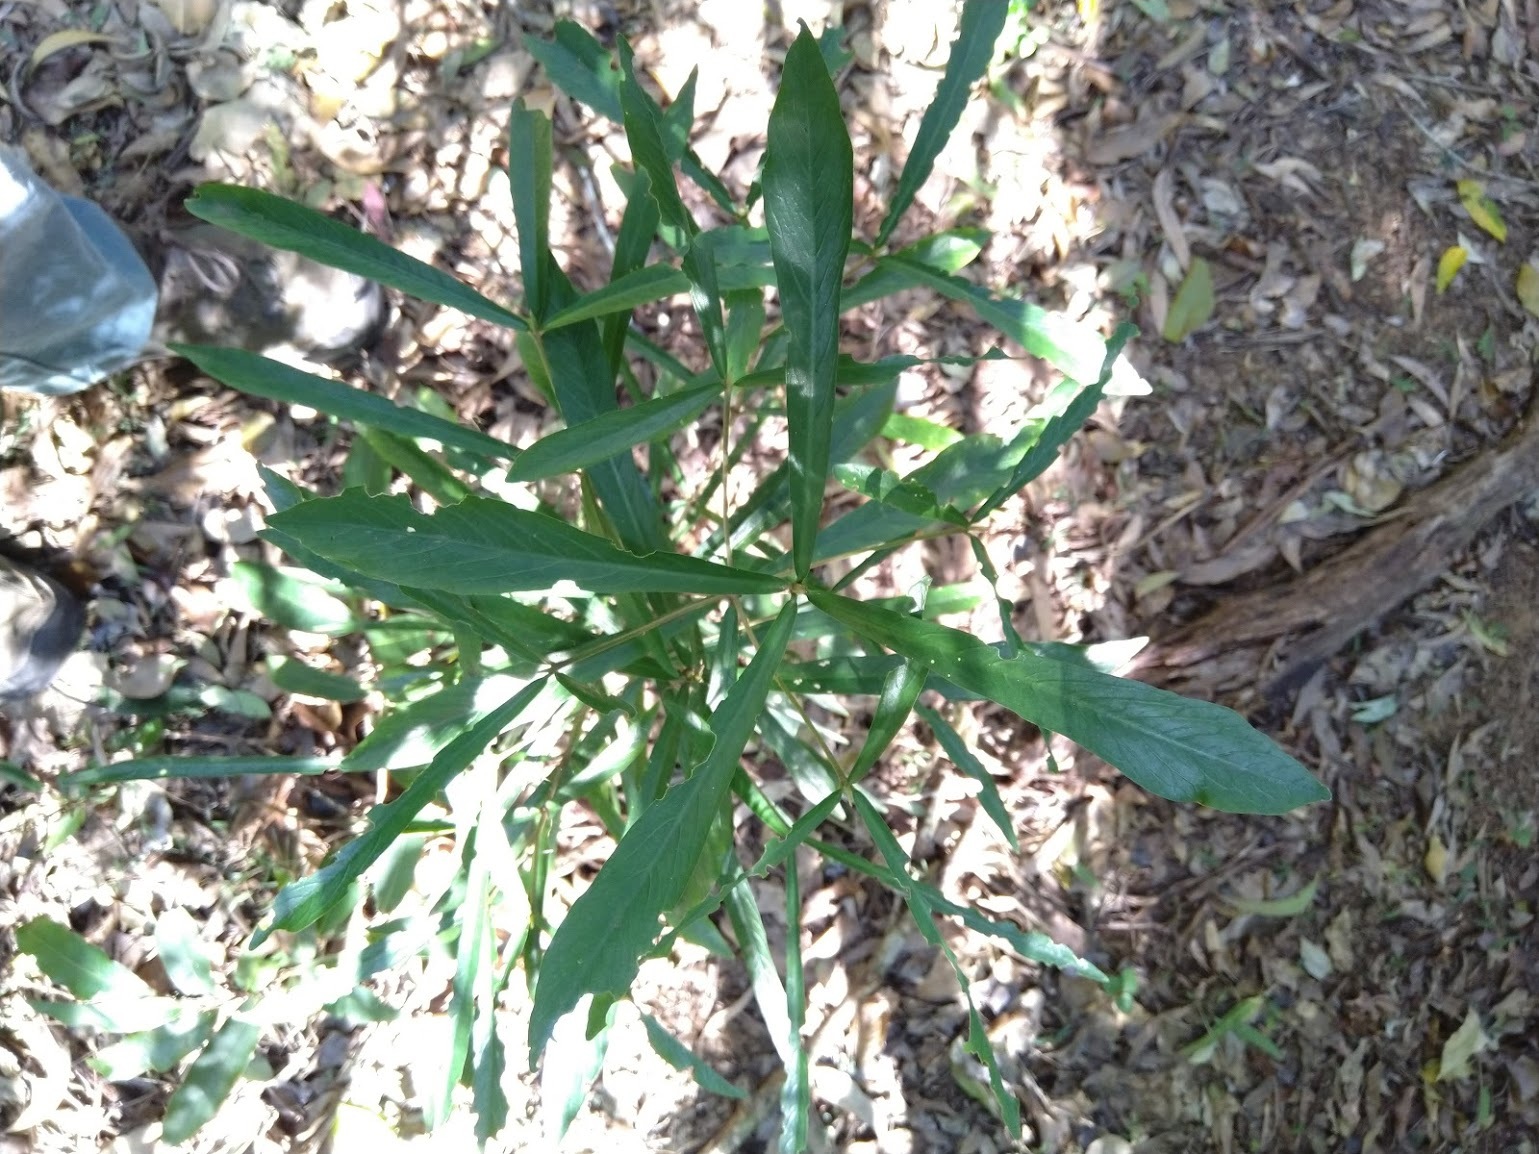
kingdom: Plantae
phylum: Tracheophyta
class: Magnoliopsida
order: Gentianales
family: Rubiaceae
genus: Atractocarpus
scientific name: Atractocarpus chartaceus
